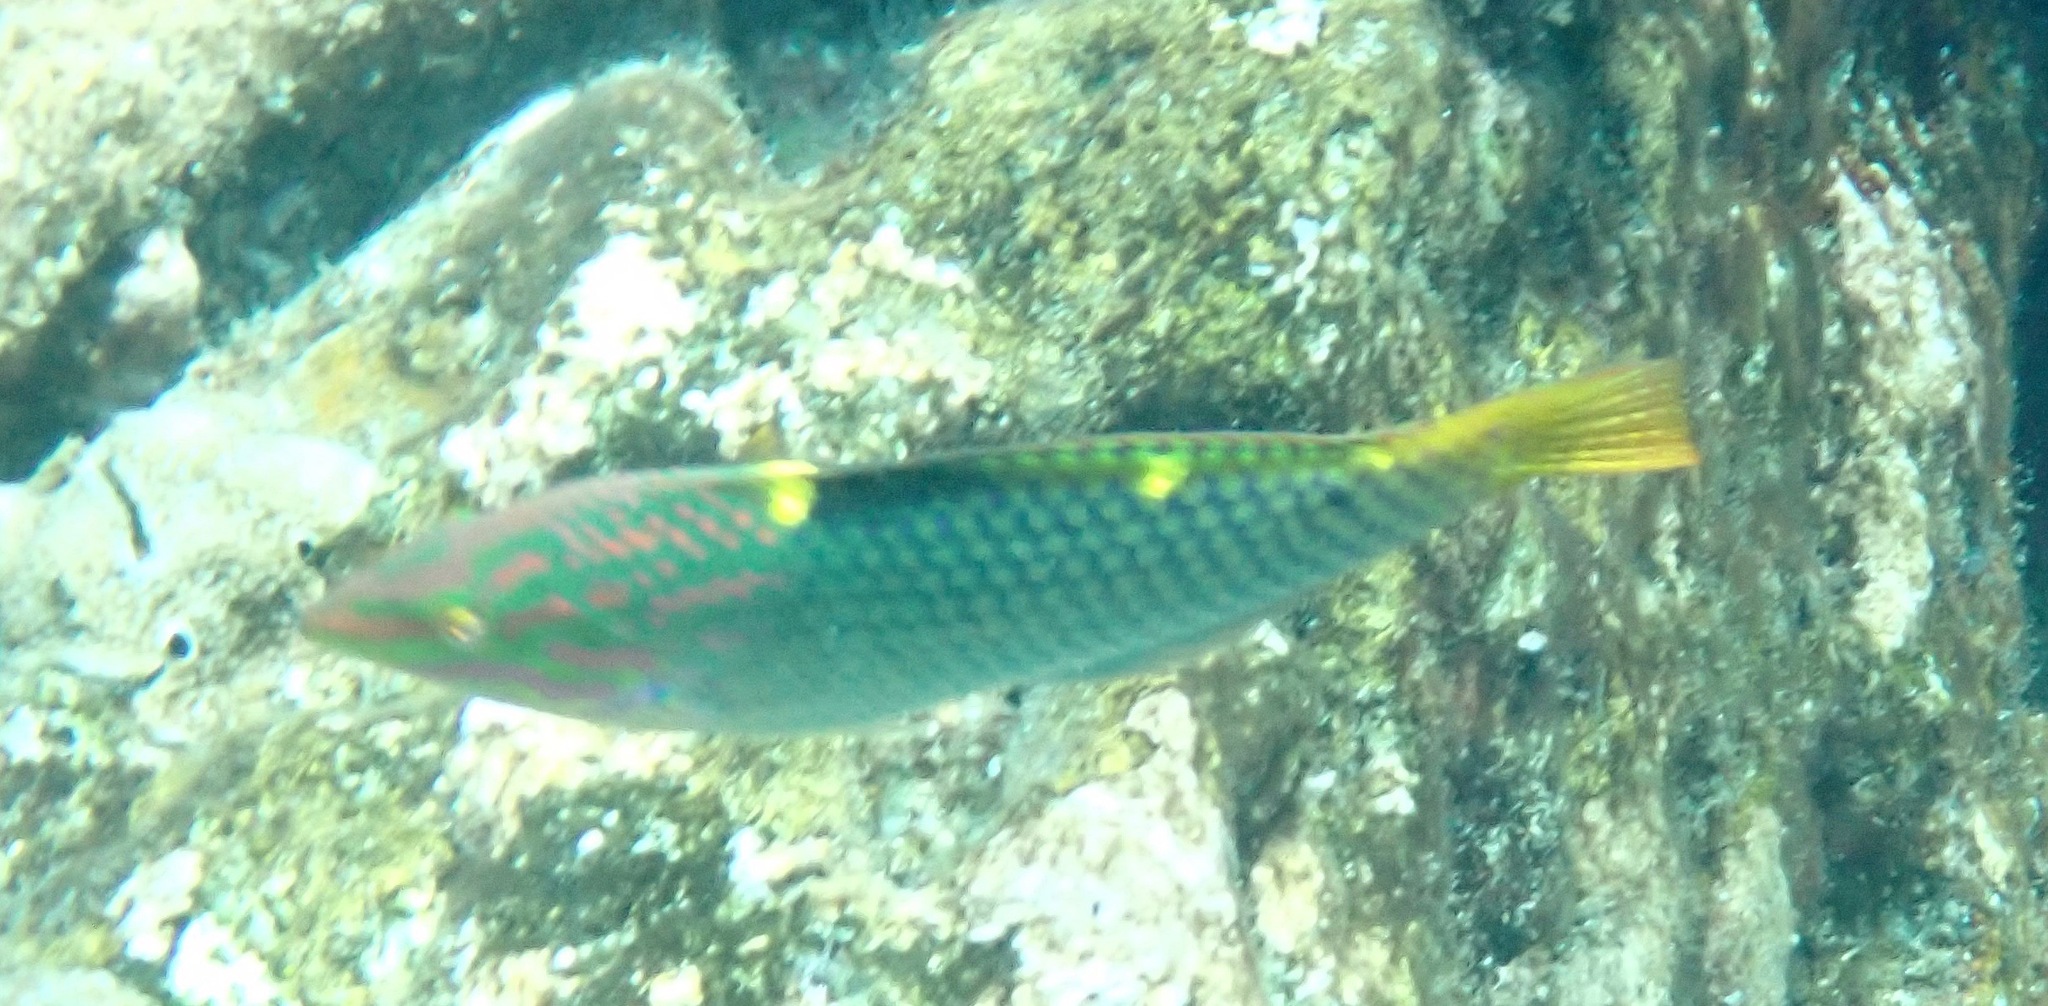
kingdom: Animalia
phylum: Chordata
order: Perciformes
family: Labridae
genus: Halichoeres
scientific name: Halichoeres hortulanus
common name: Checkerboard wrasse
